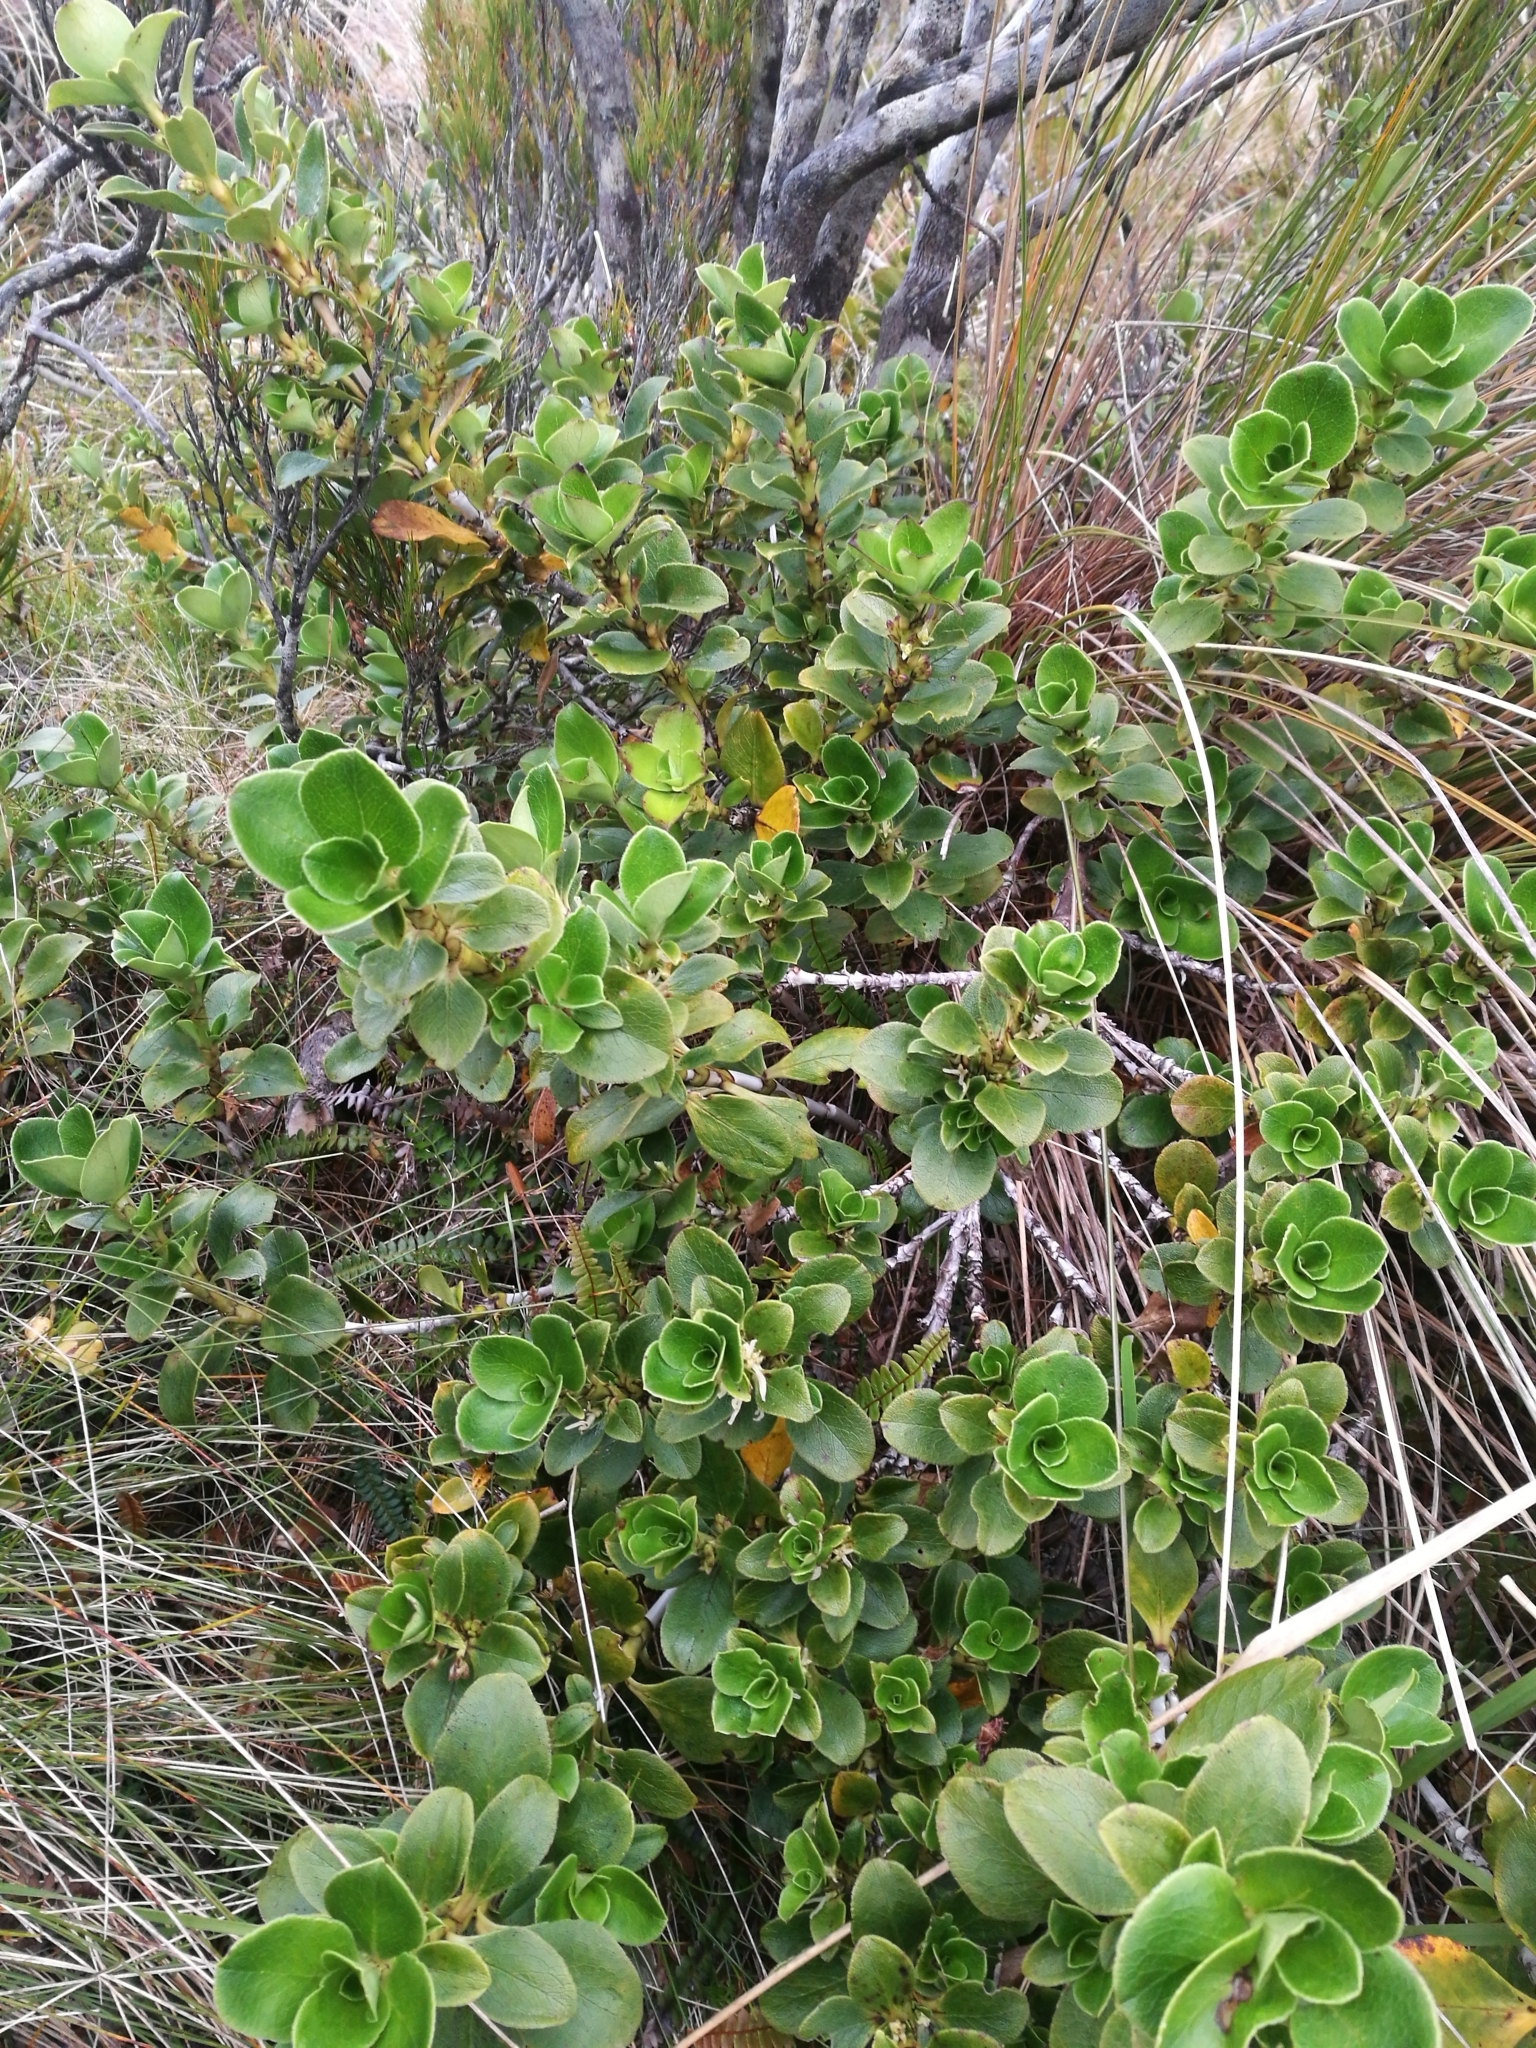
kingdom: Plantae
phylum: Tracheophyta
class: Magnoliopsida
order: Gentianales
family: Rubiaceae
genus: Coprosma
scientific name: Coprosma serrulata
